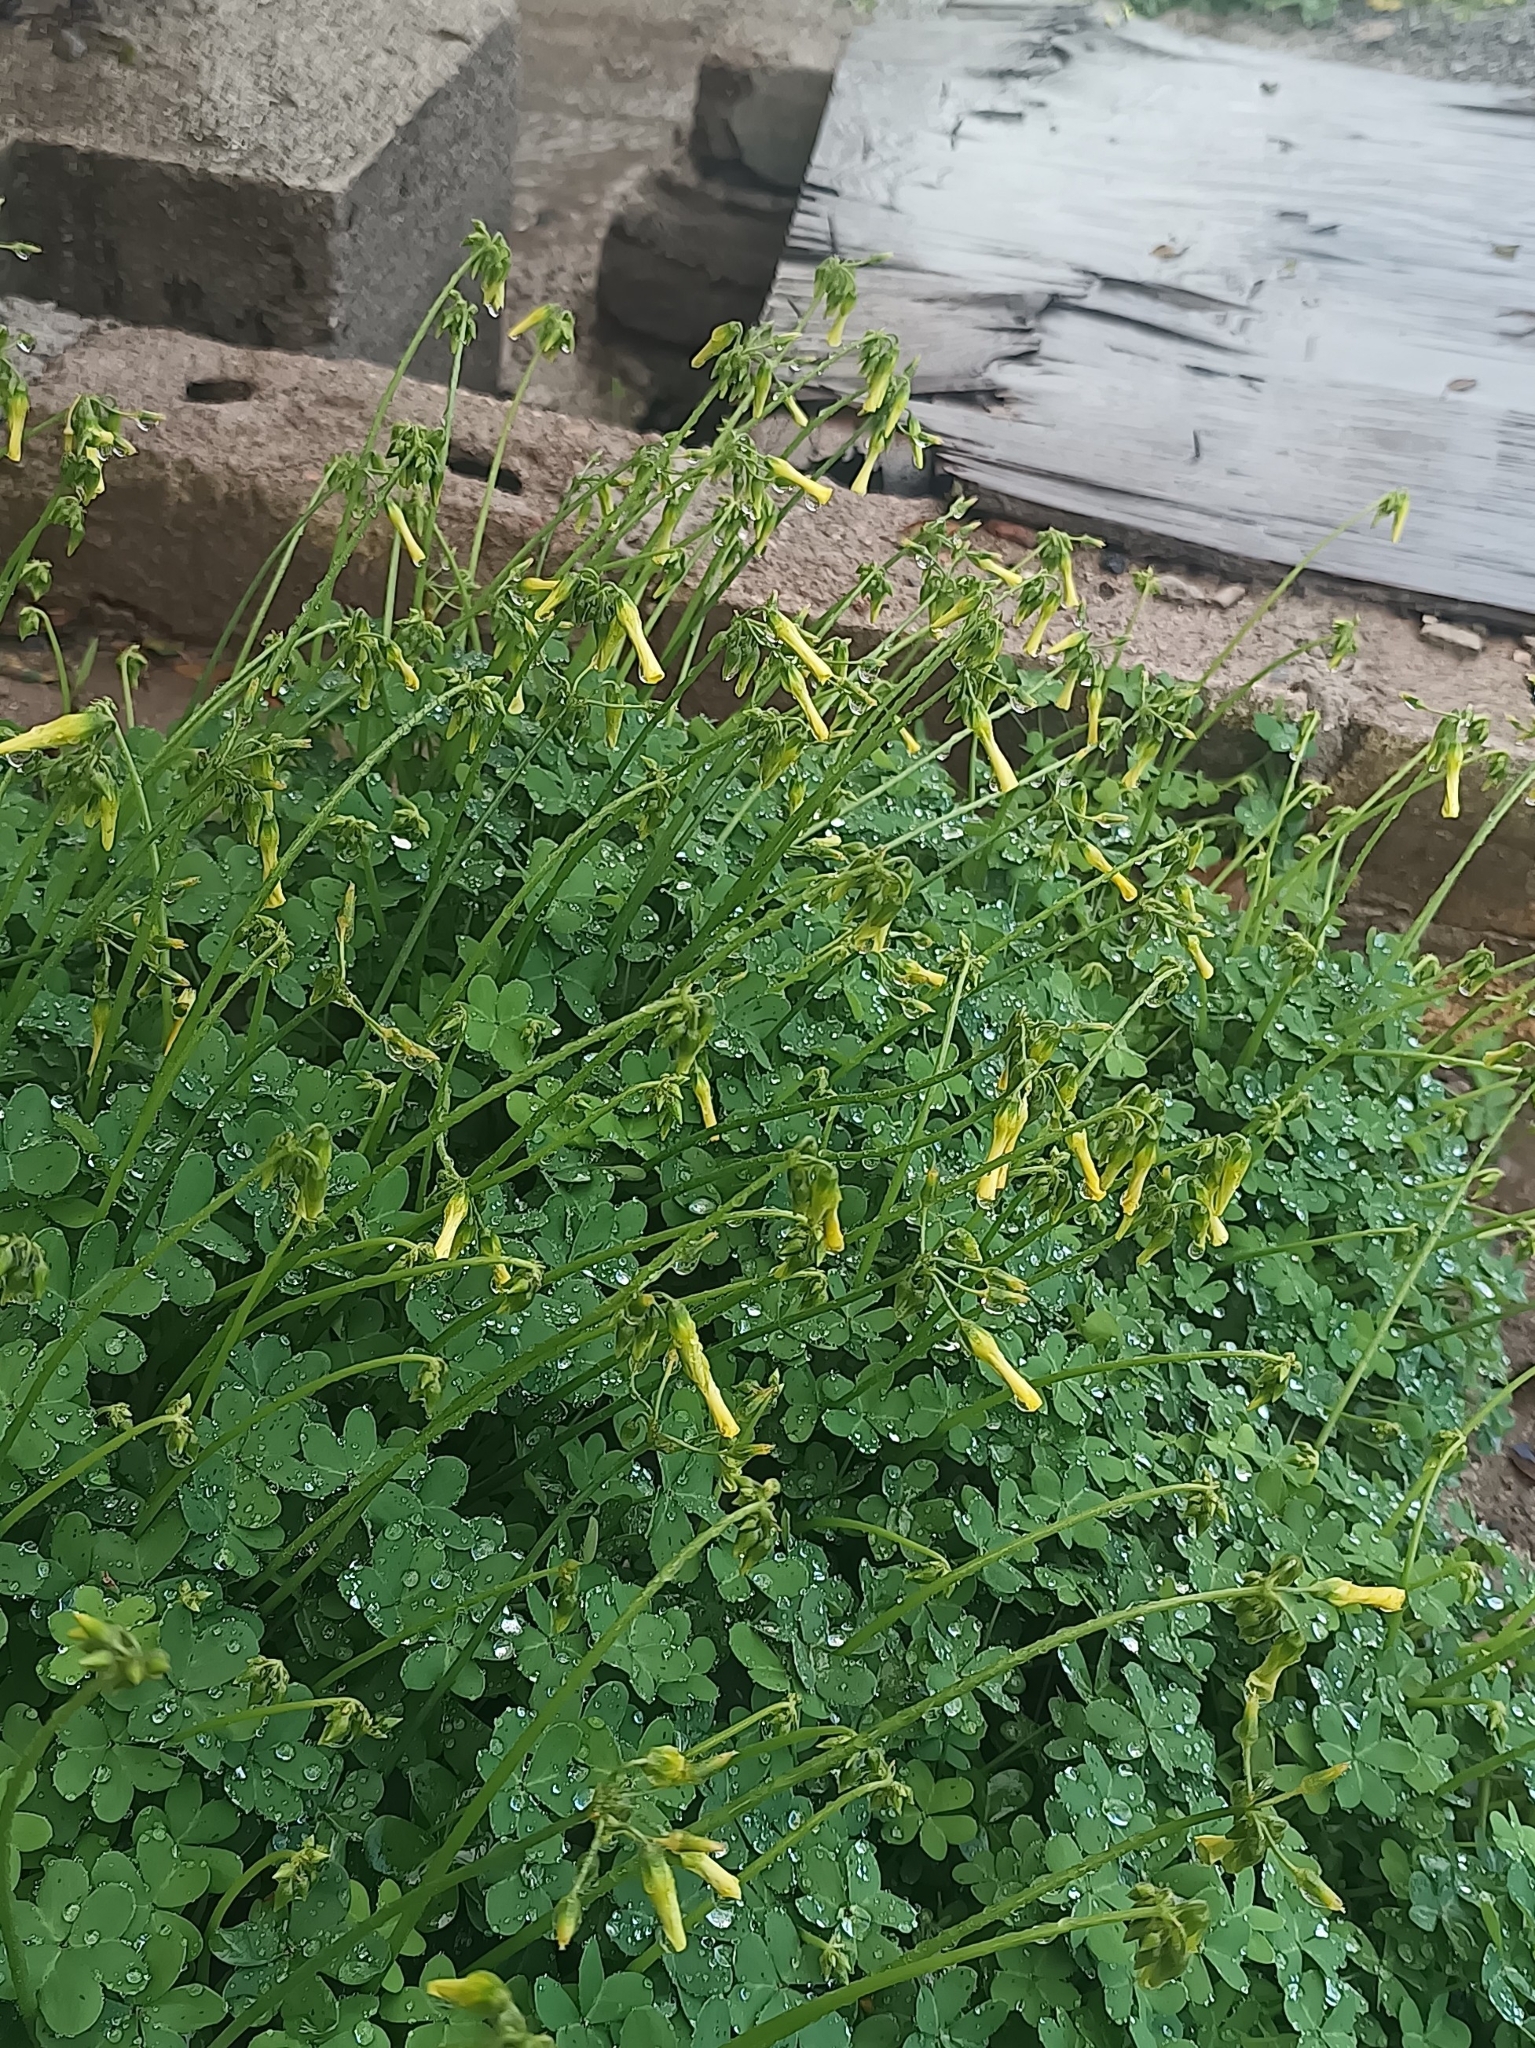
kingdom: Plantae
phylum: Tracheophyta
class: Magnoliopsida
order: Oxalidales
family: Oxalidaceae
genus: Oxalis
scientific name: Oxalis pes-caprae
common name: Bermuda-buttercup
